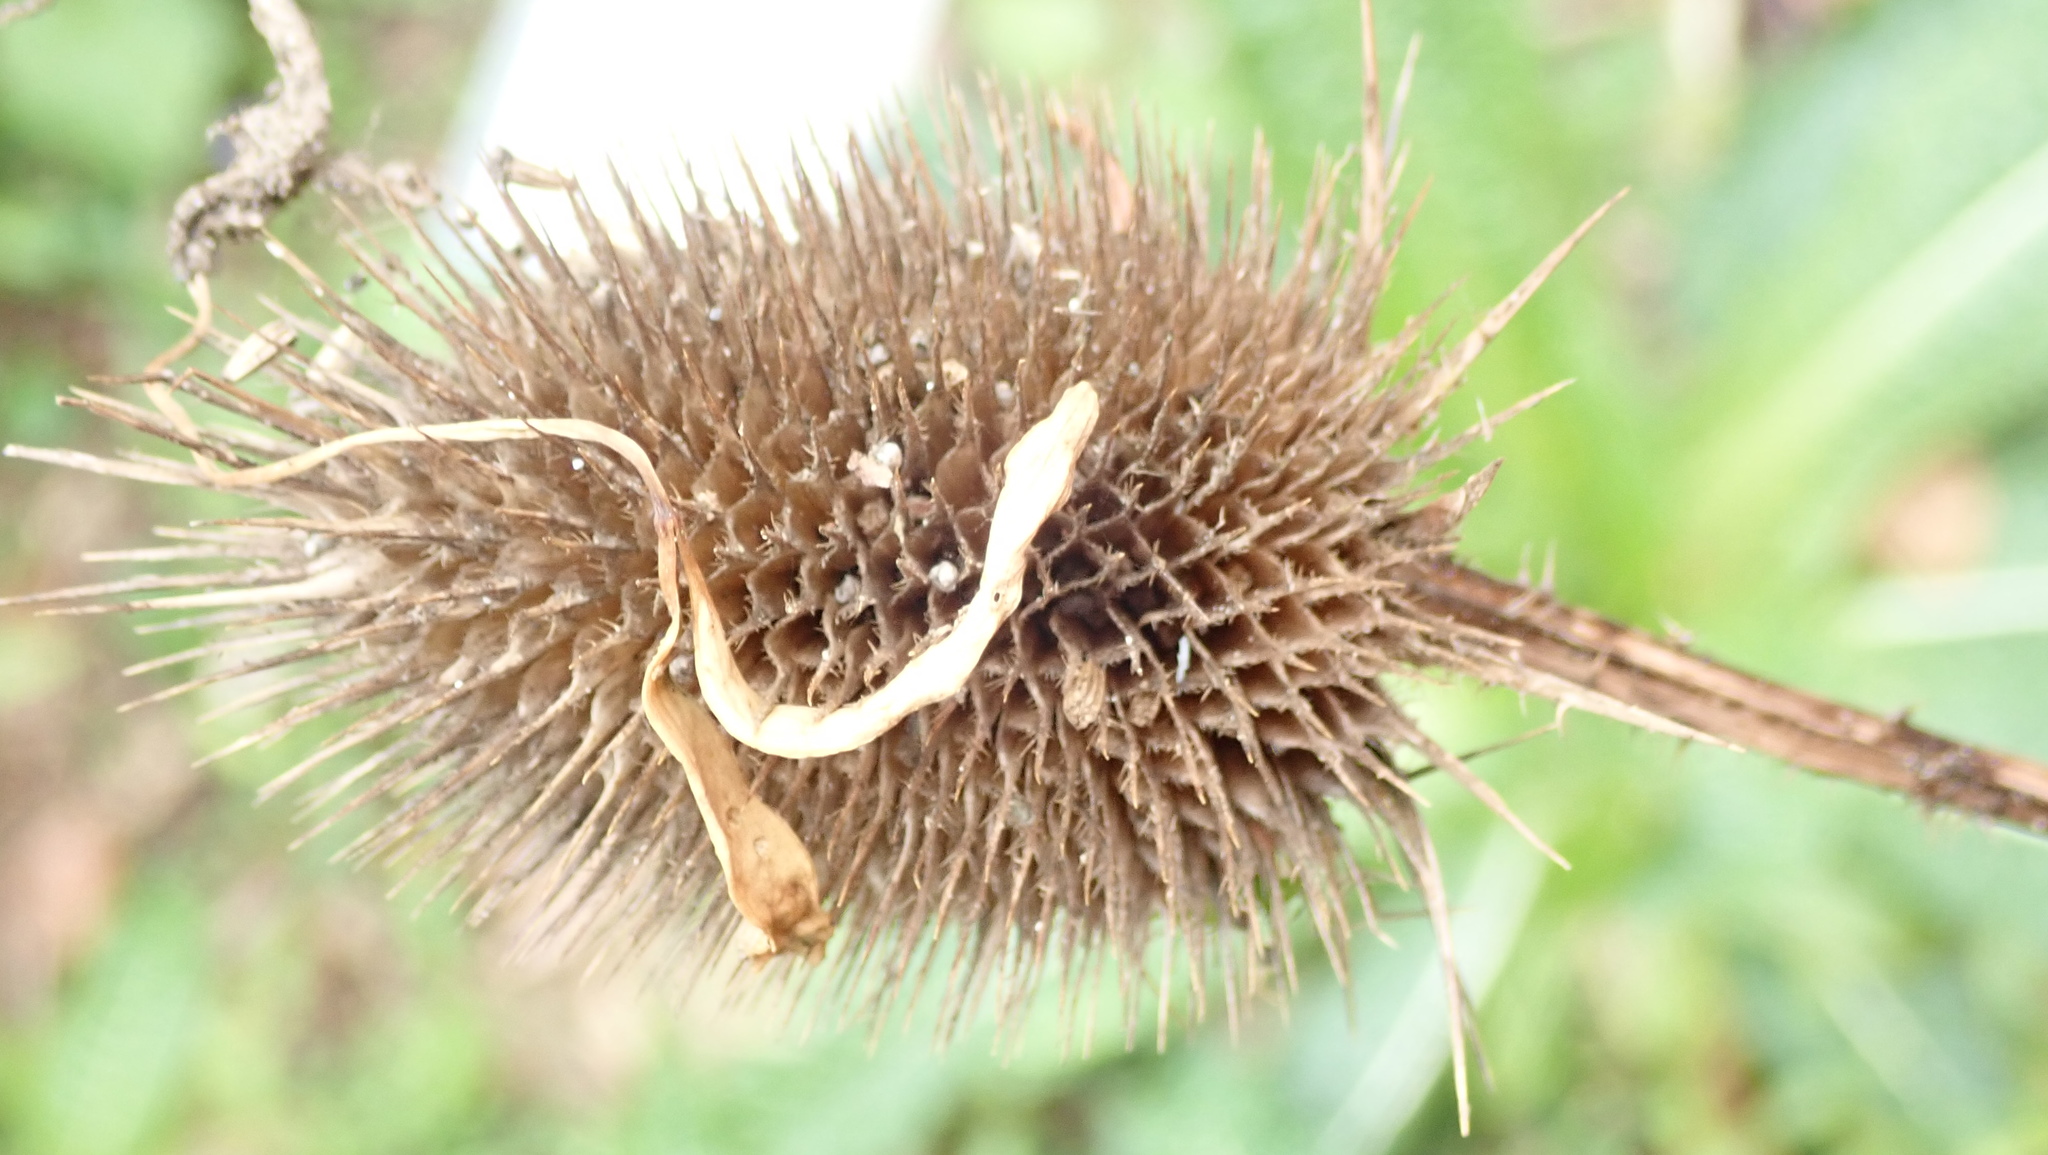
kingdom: Plantae
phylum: Tracheophyta
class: Magnoliopsida
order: Dipsacales
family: Caprifoliaceae
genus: Dipsacus
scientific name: Dipsacus fullonum
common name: Teasel
